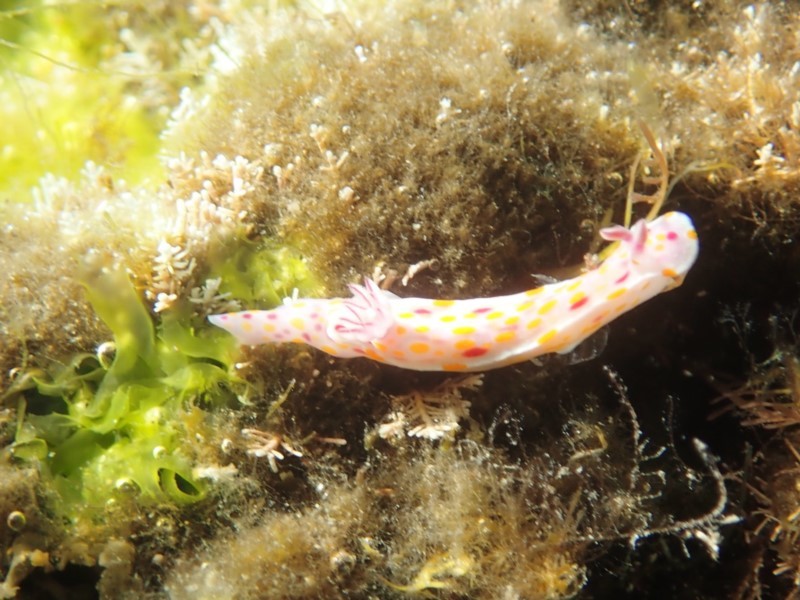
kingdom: Animalia
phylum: Mollusca
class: Gastropoda
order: Nudibranchia
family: Chromodorididae
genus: Ceratosoma
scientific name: Ceratosoma amoenum
